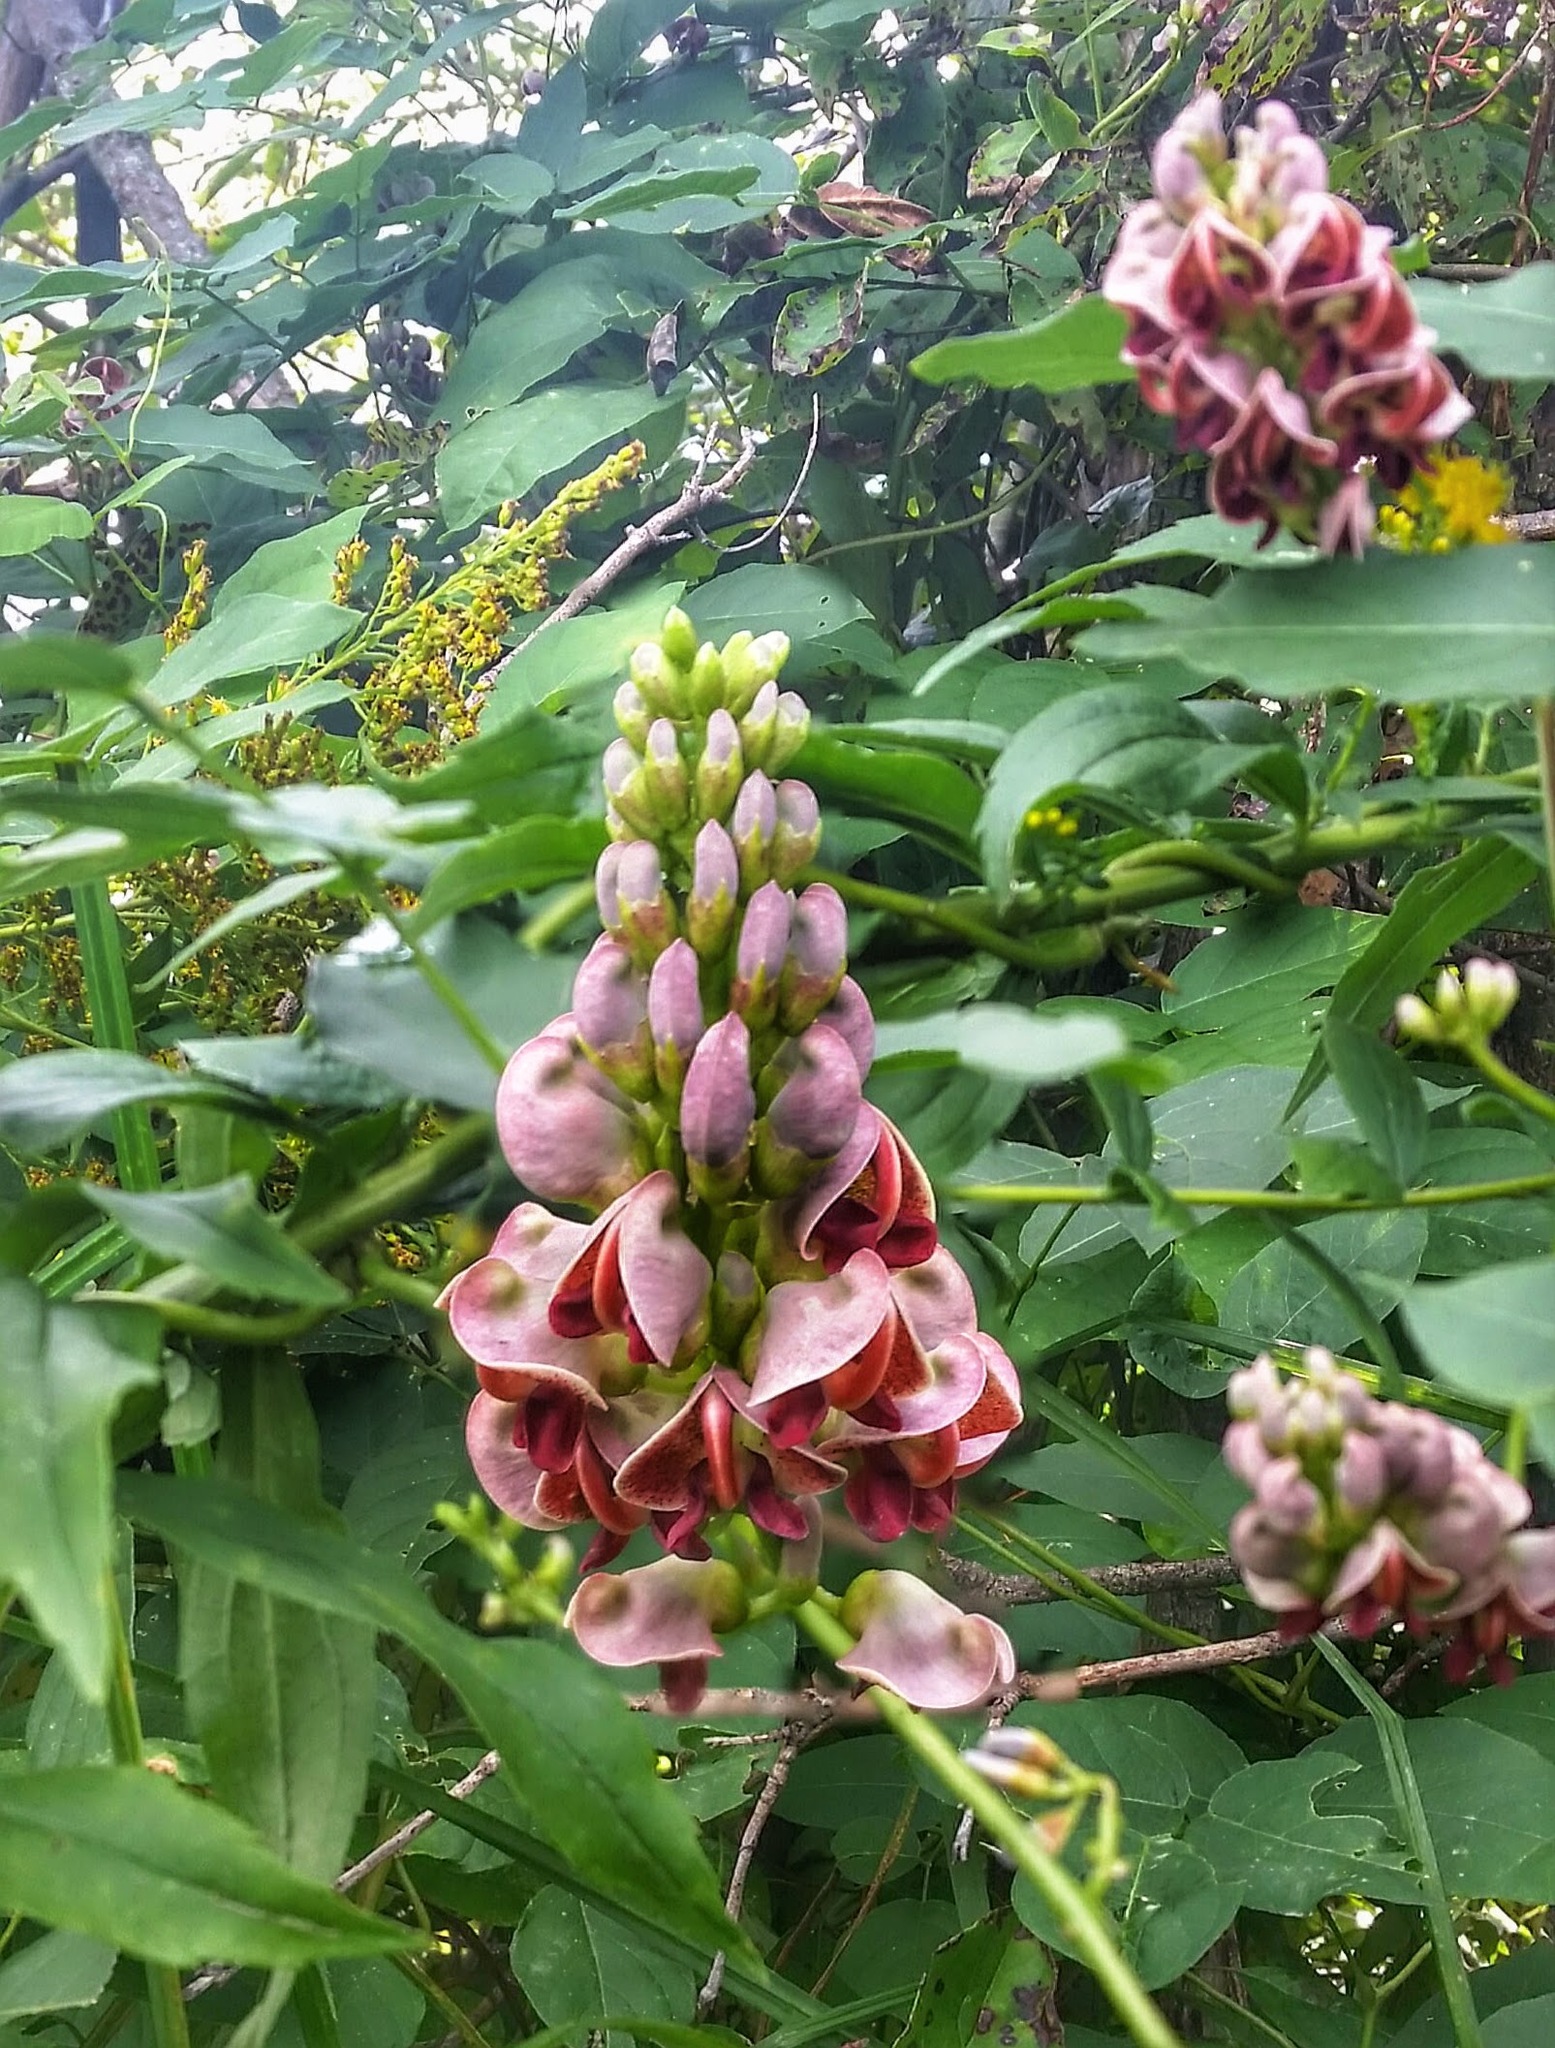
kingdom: Plantae
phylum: Tracheophyta
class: Magnoliopsida
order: Fabales
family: Fabaceae
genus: Apios
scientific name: Apios americana
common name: American potato-bean
